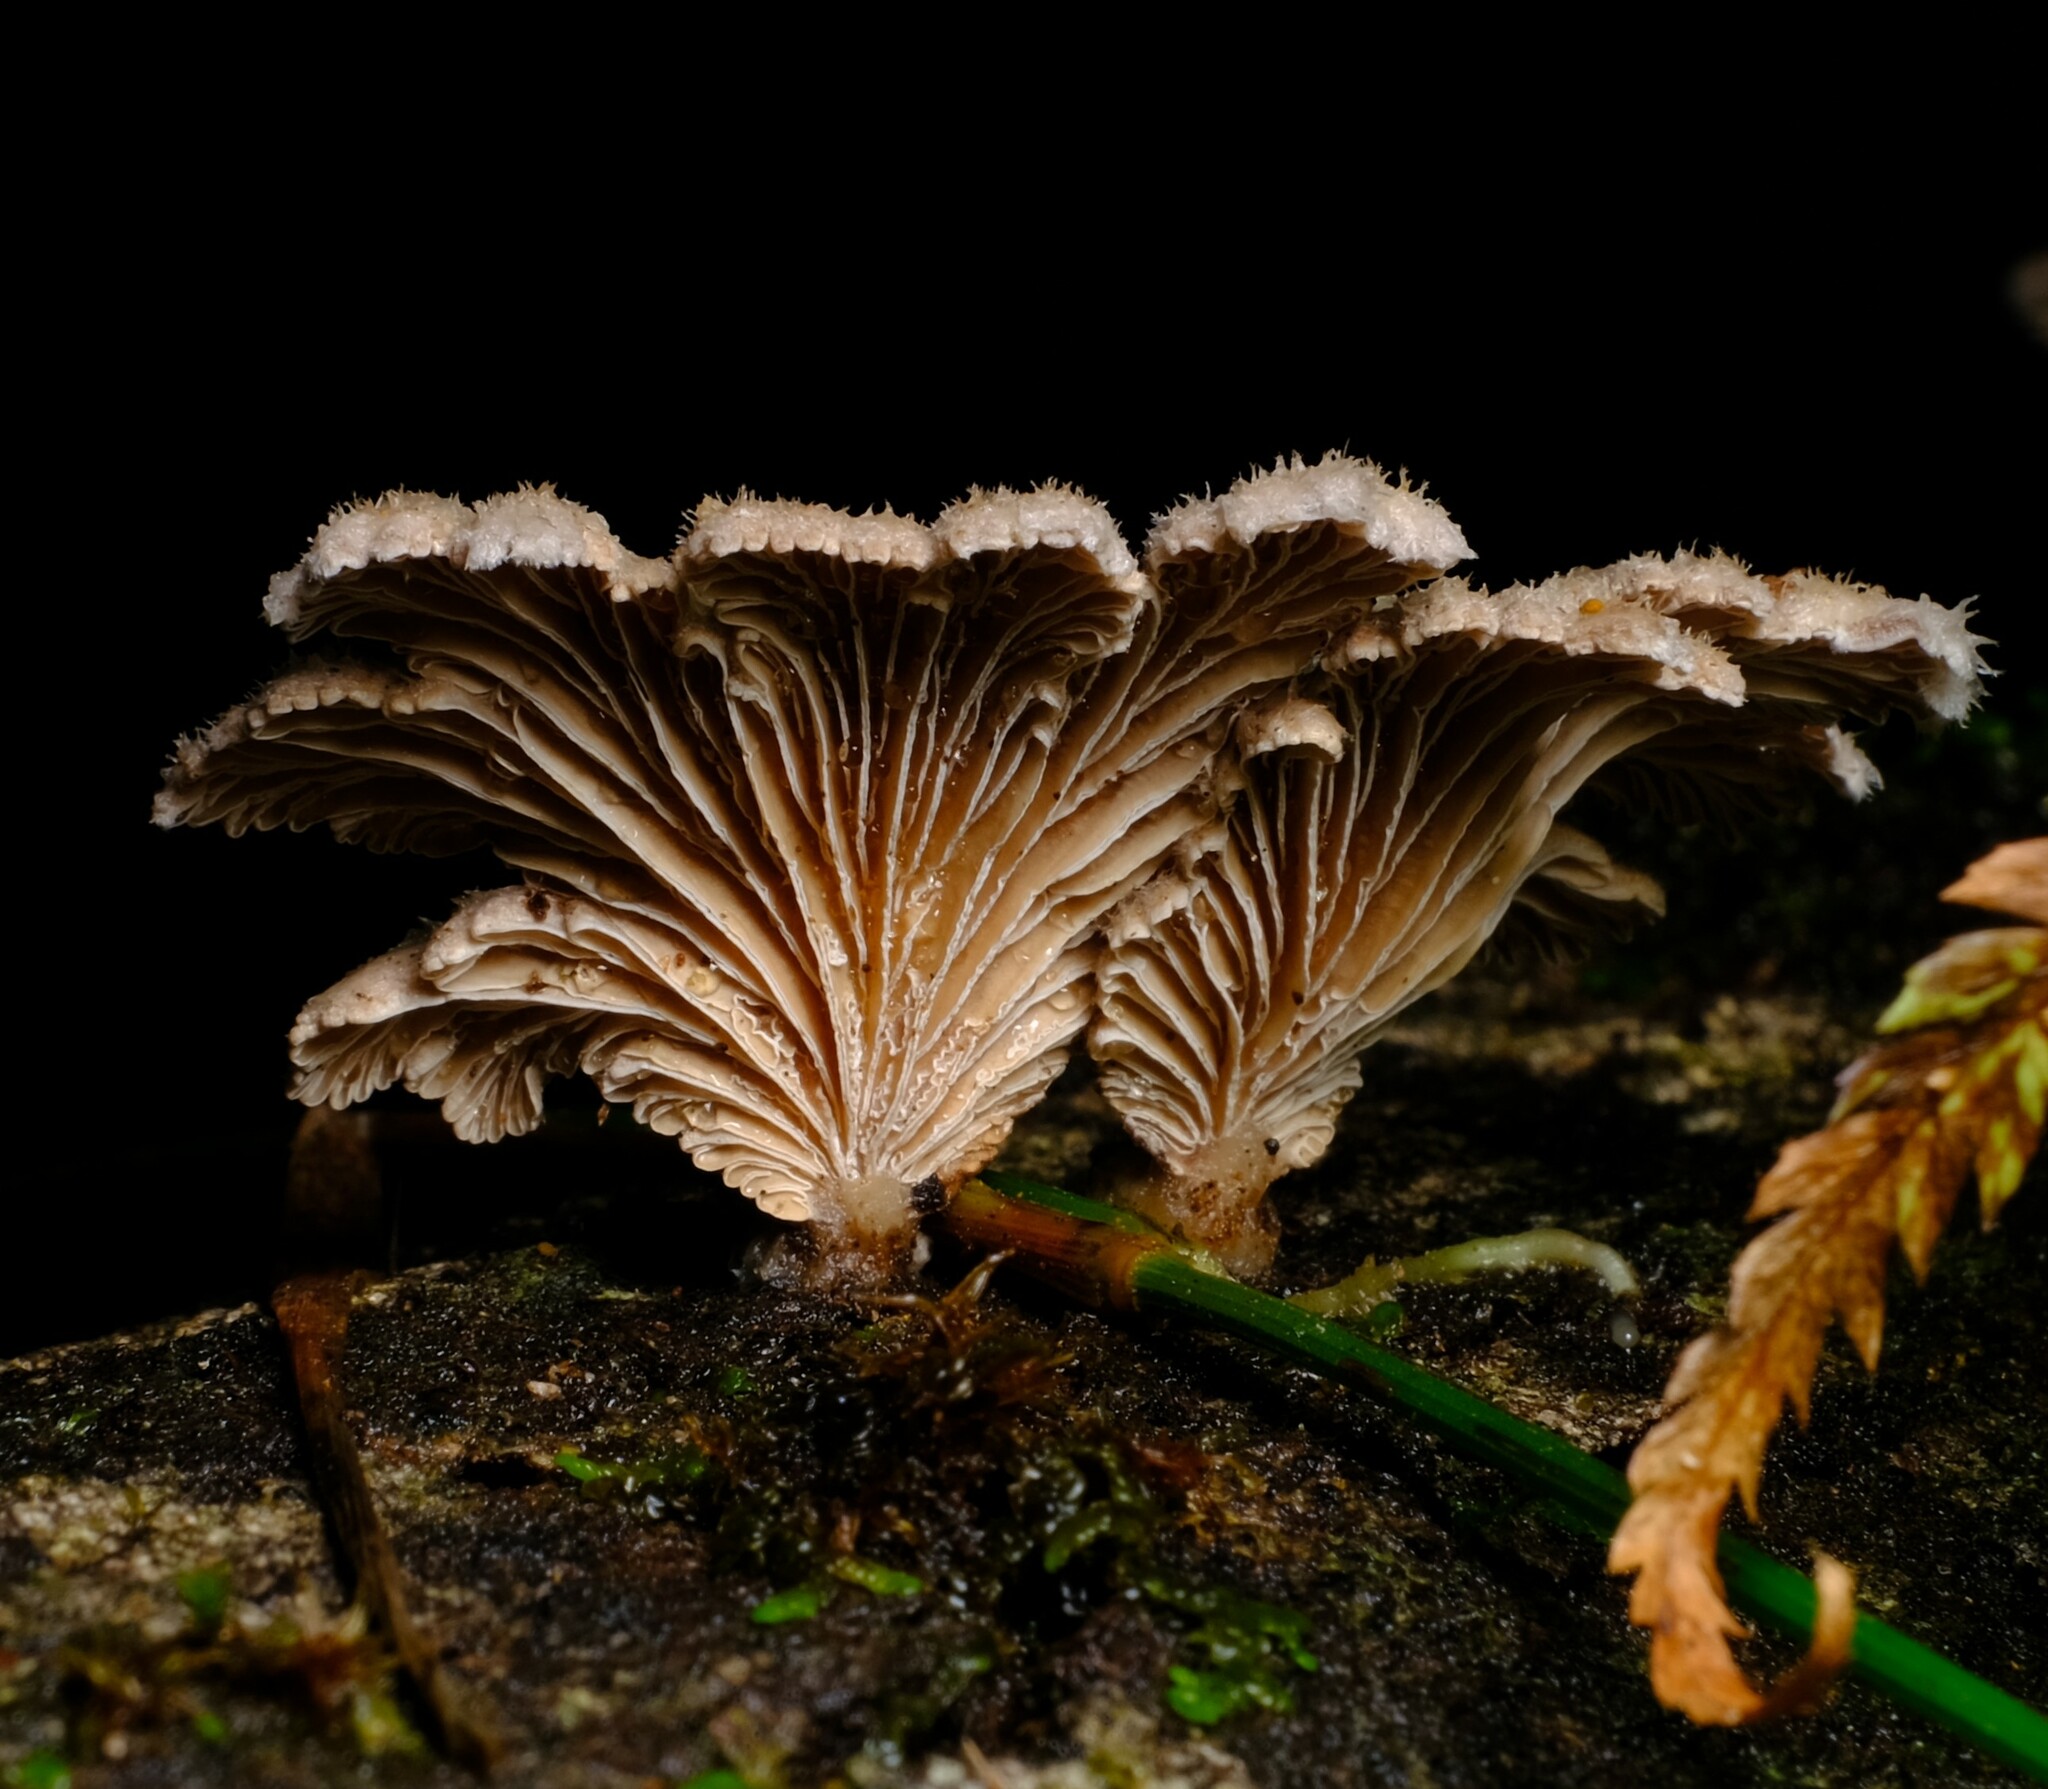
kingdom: Fungi
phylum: Basidiomycota
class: Agaricomycetes
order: Agaricales
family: Schizophyllaceae
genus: Schizophyllum
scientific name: Schizophyllum commune
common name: Common porecrust
